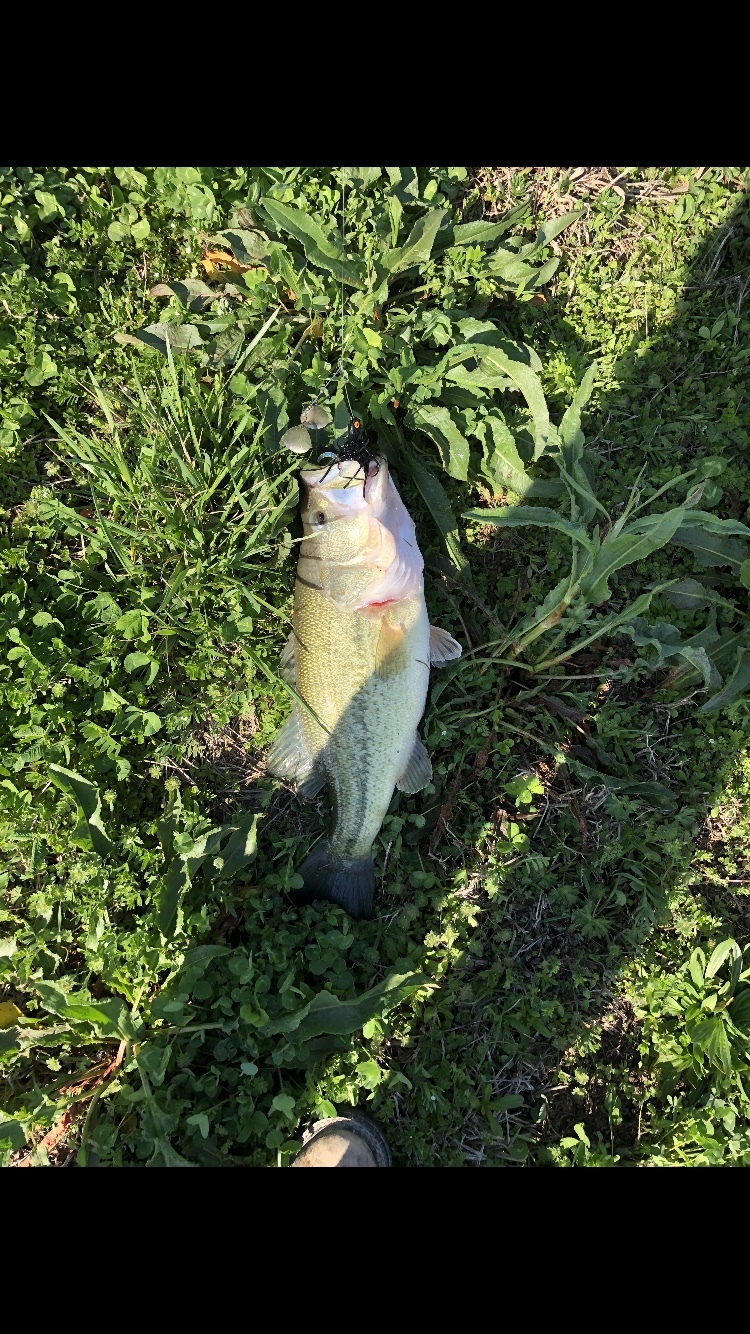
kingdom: Animalia
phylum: Chordata
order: Perciformes
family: Centrarchidae
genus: Micropterus
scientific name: Micropterus
